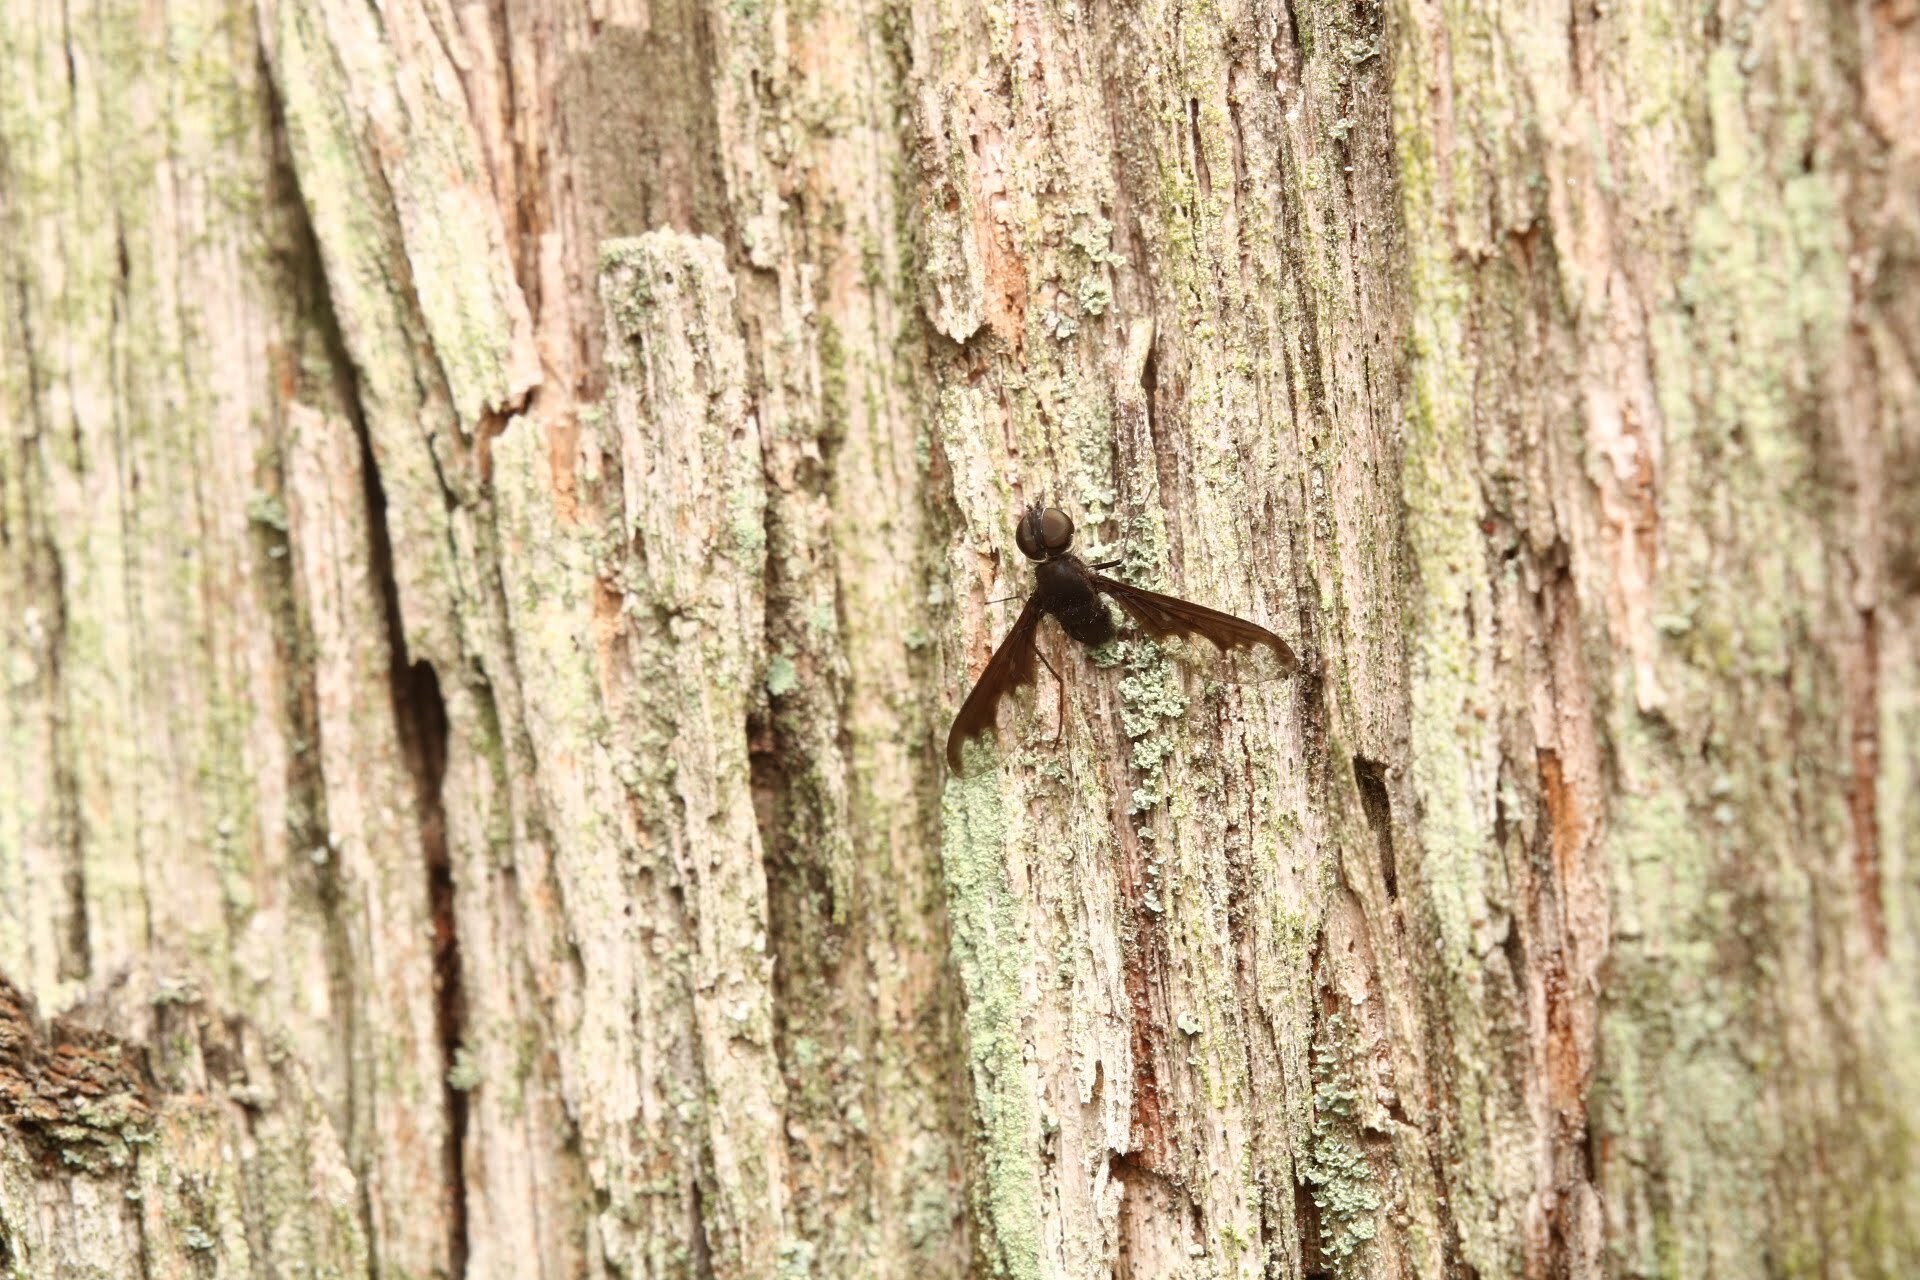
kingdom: Animalia
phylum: Arthropoda
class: Insecta
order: Diptera
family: Bombyliidae
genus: Anthrax
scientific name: Anthrax argyropygus
